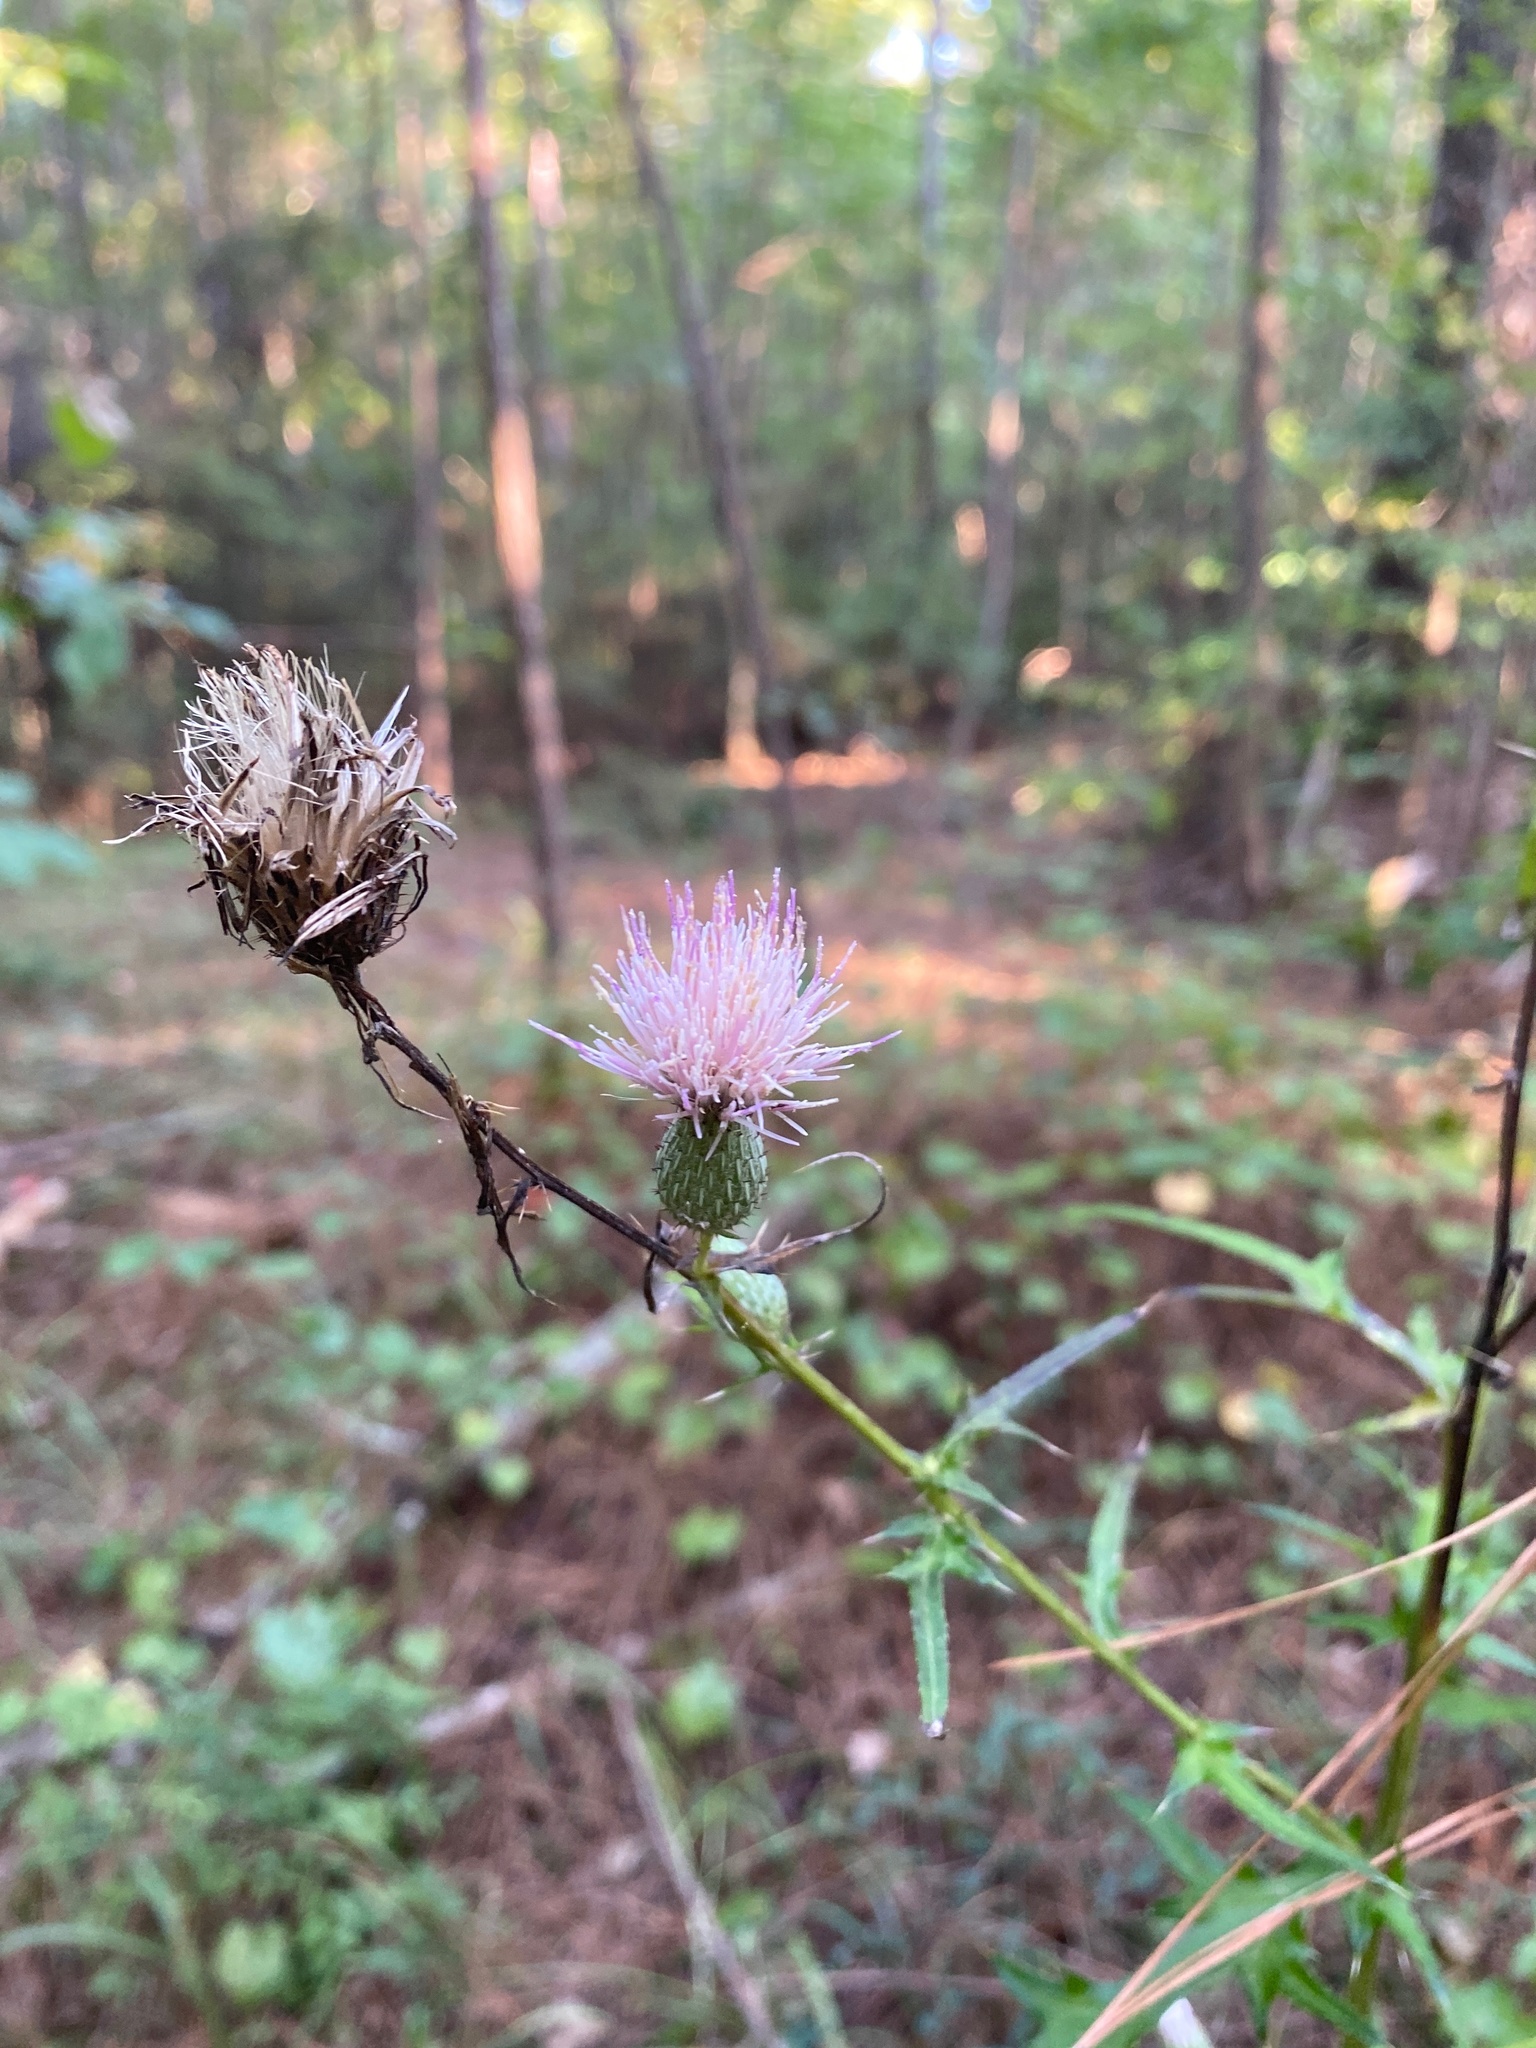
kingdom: Plantae
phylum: Tracheophyta
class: Magnoliopsida
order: Asterales
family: Asteraceae
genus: Cirsium
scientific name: Cirsium nuttalii
